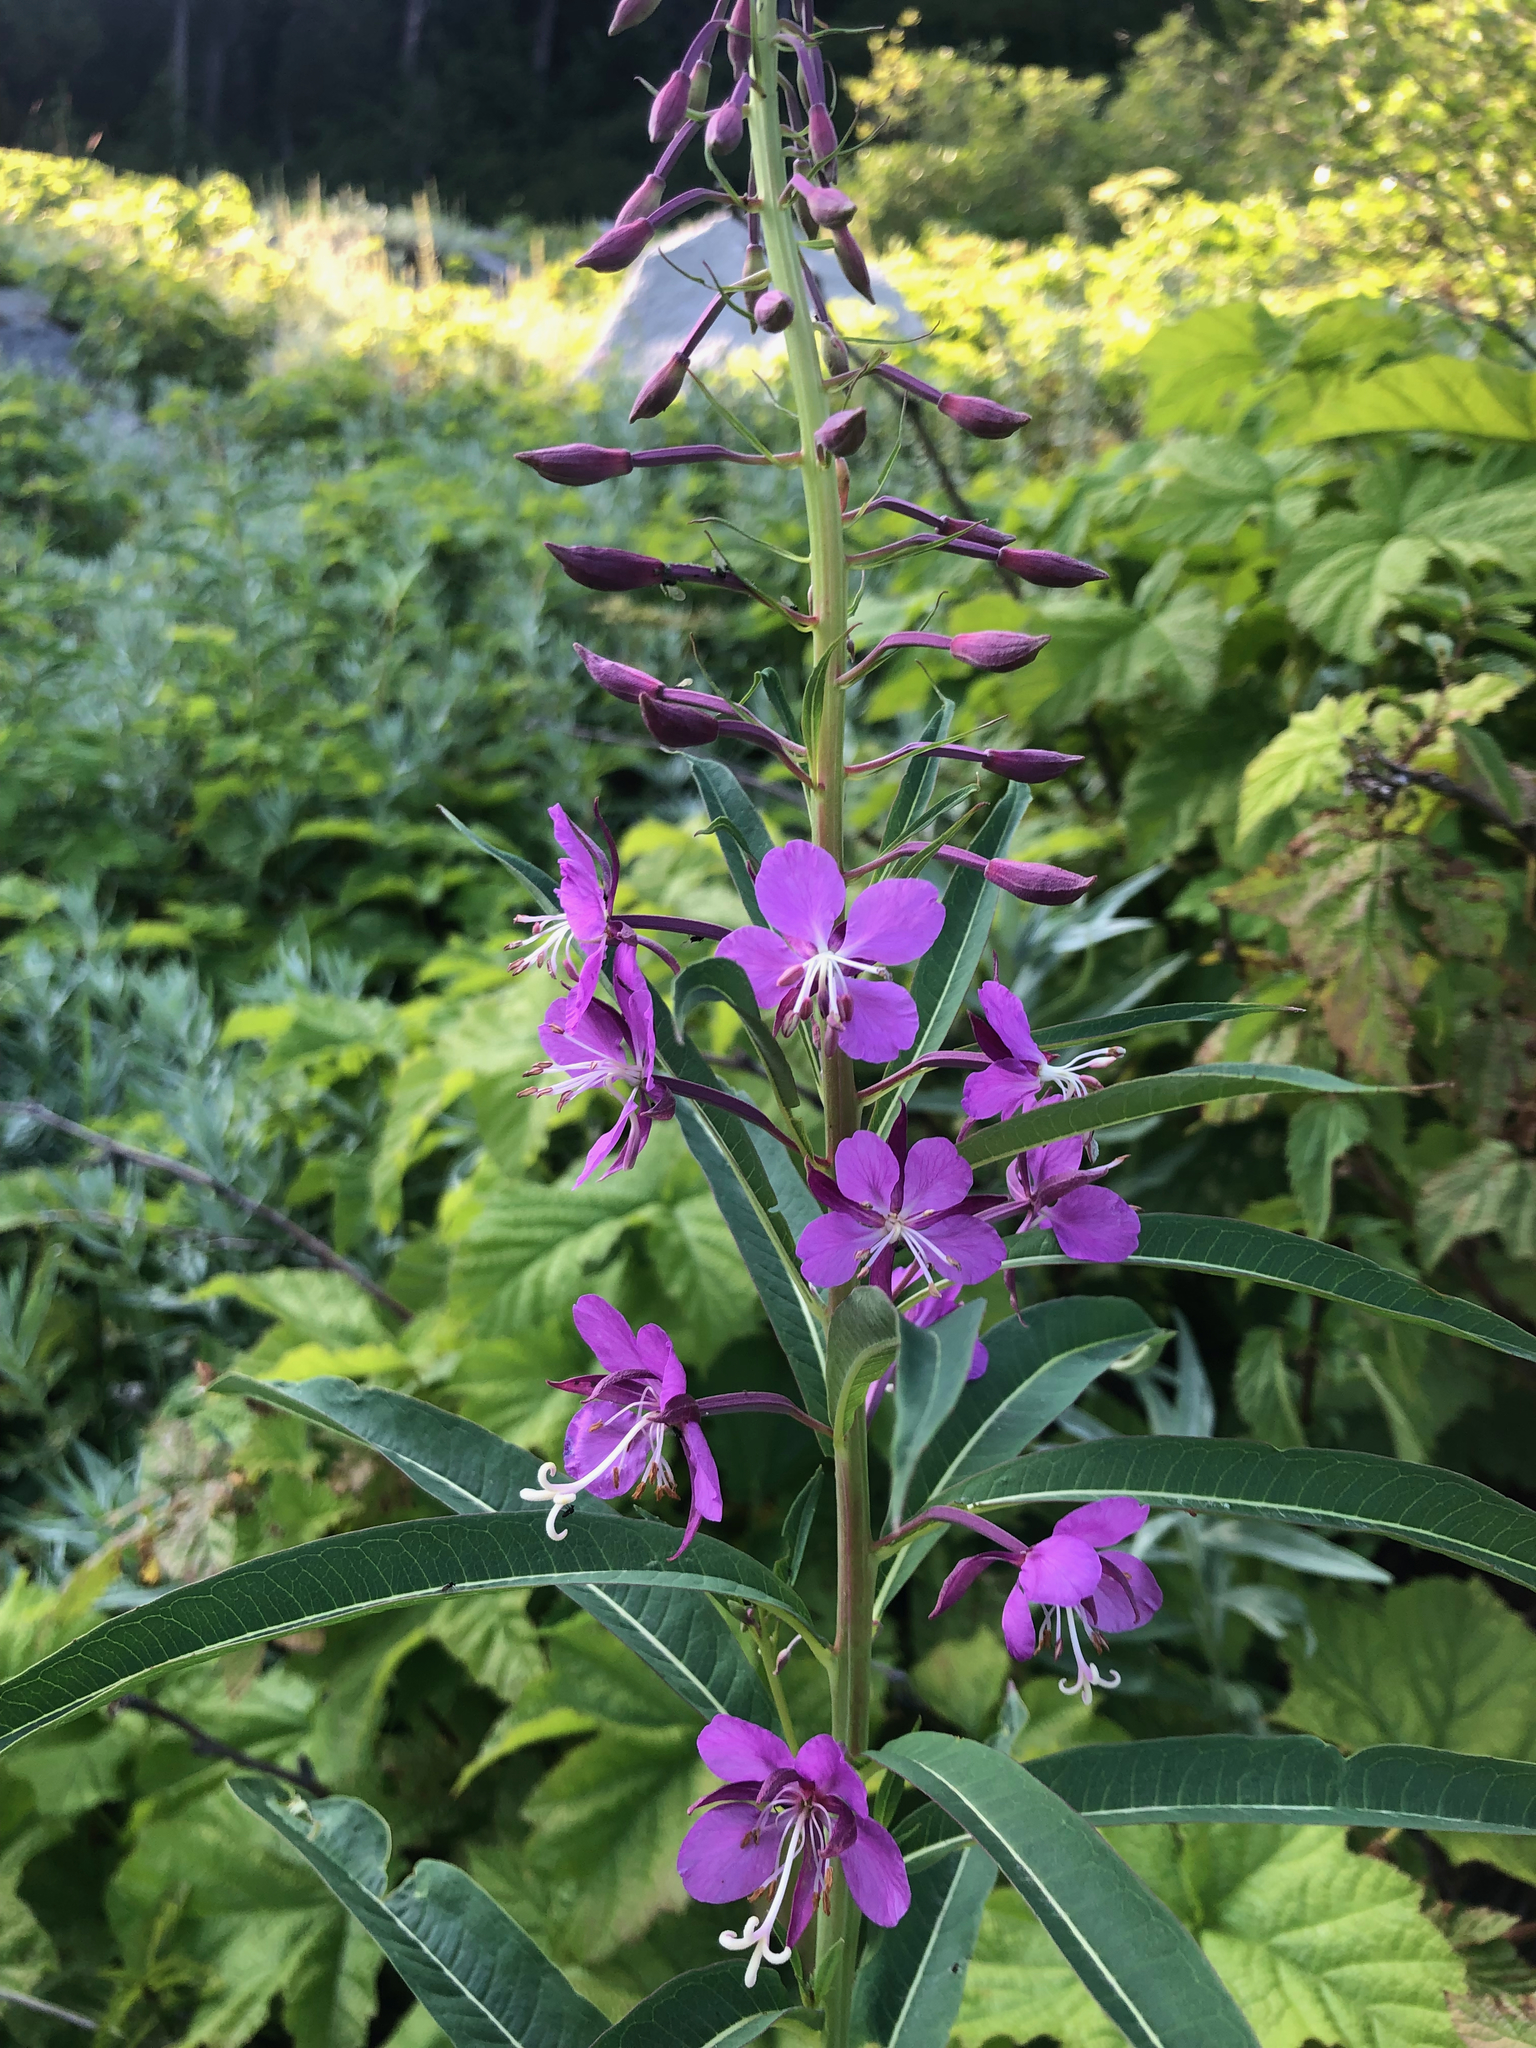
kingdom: Plantae
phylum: Tracheophyta
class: Magnoliopsida
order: Myrtales
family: Onagraceae
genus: Chamaenerion
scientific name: Chamaenerion angustifolium
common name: Fireweed
